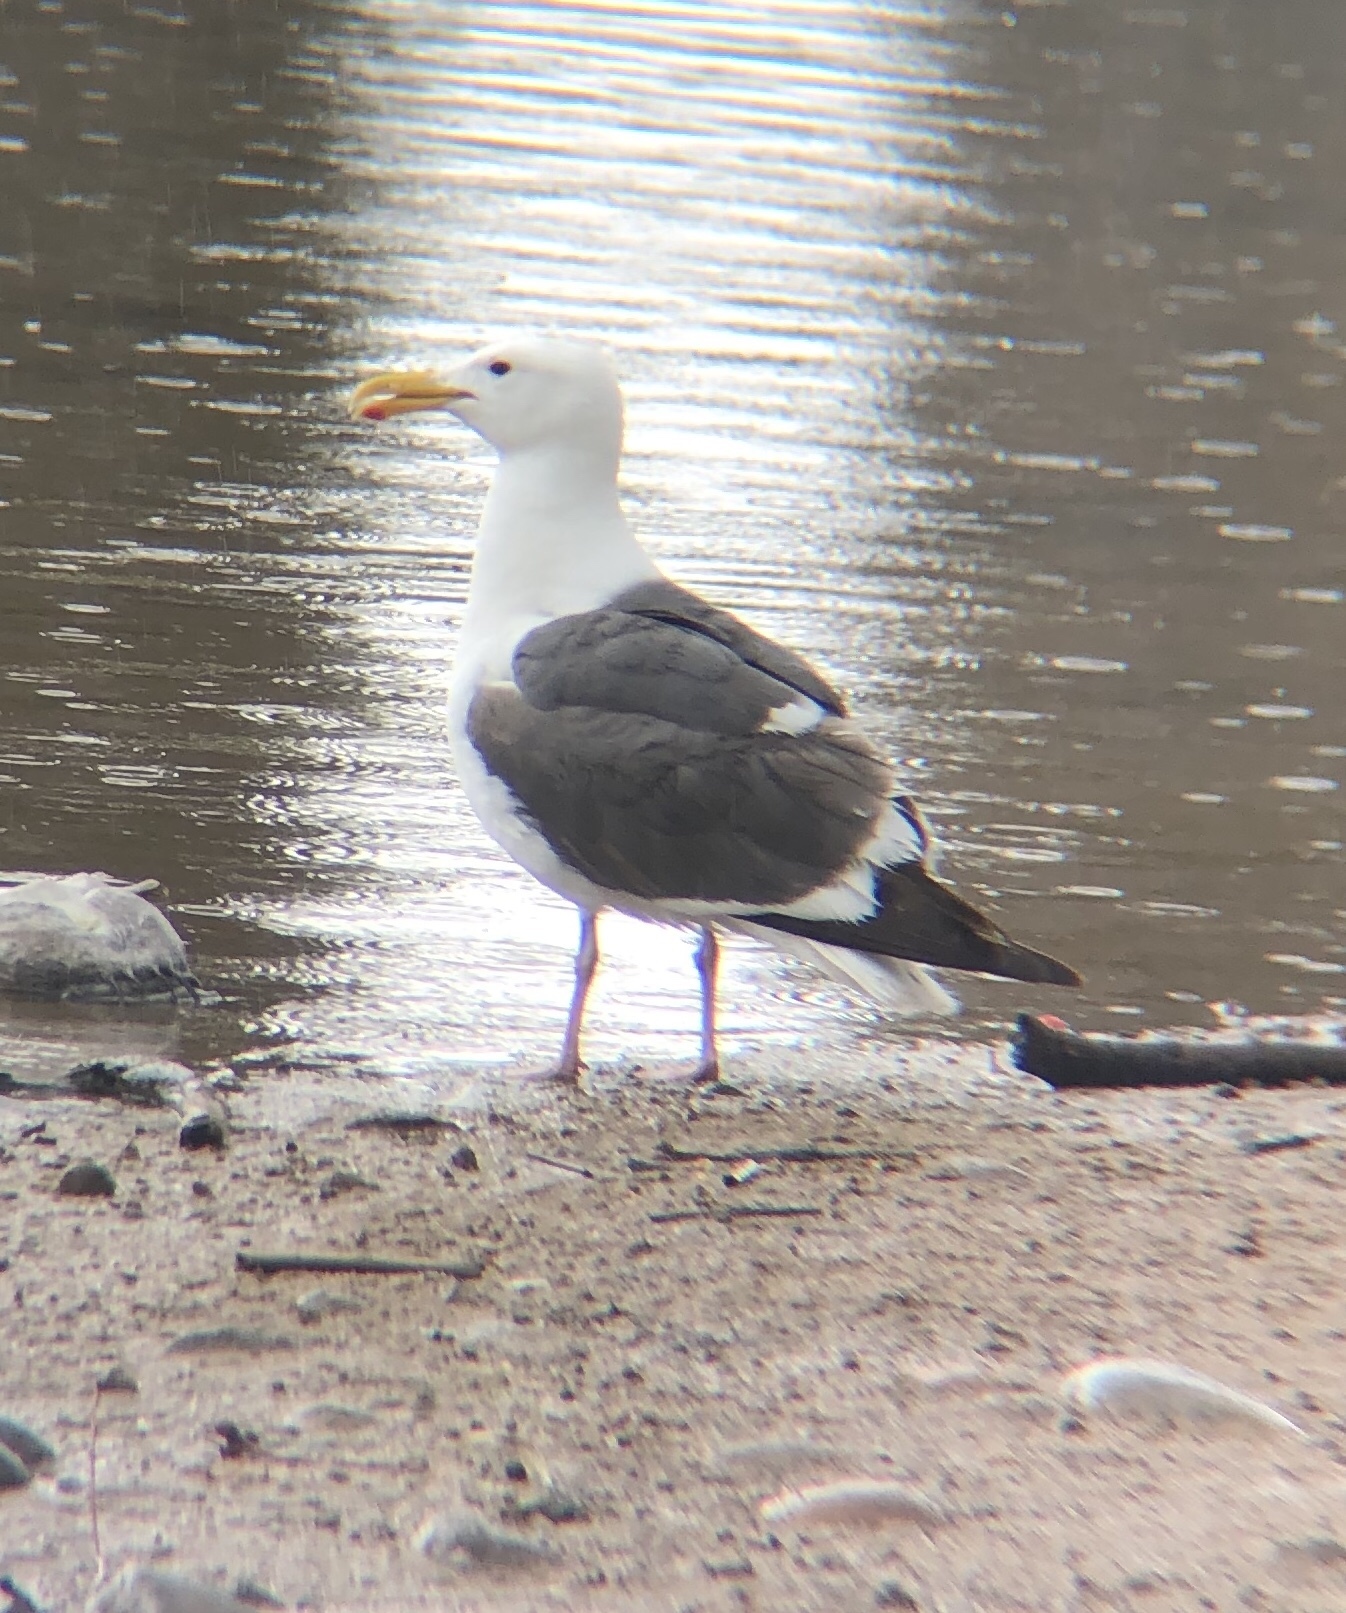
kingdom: Animalia
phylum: Chordata
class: Aves
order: Charadriiformes
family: Laridae
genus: Larus
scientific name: Larus occidentalis
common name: Western gull
